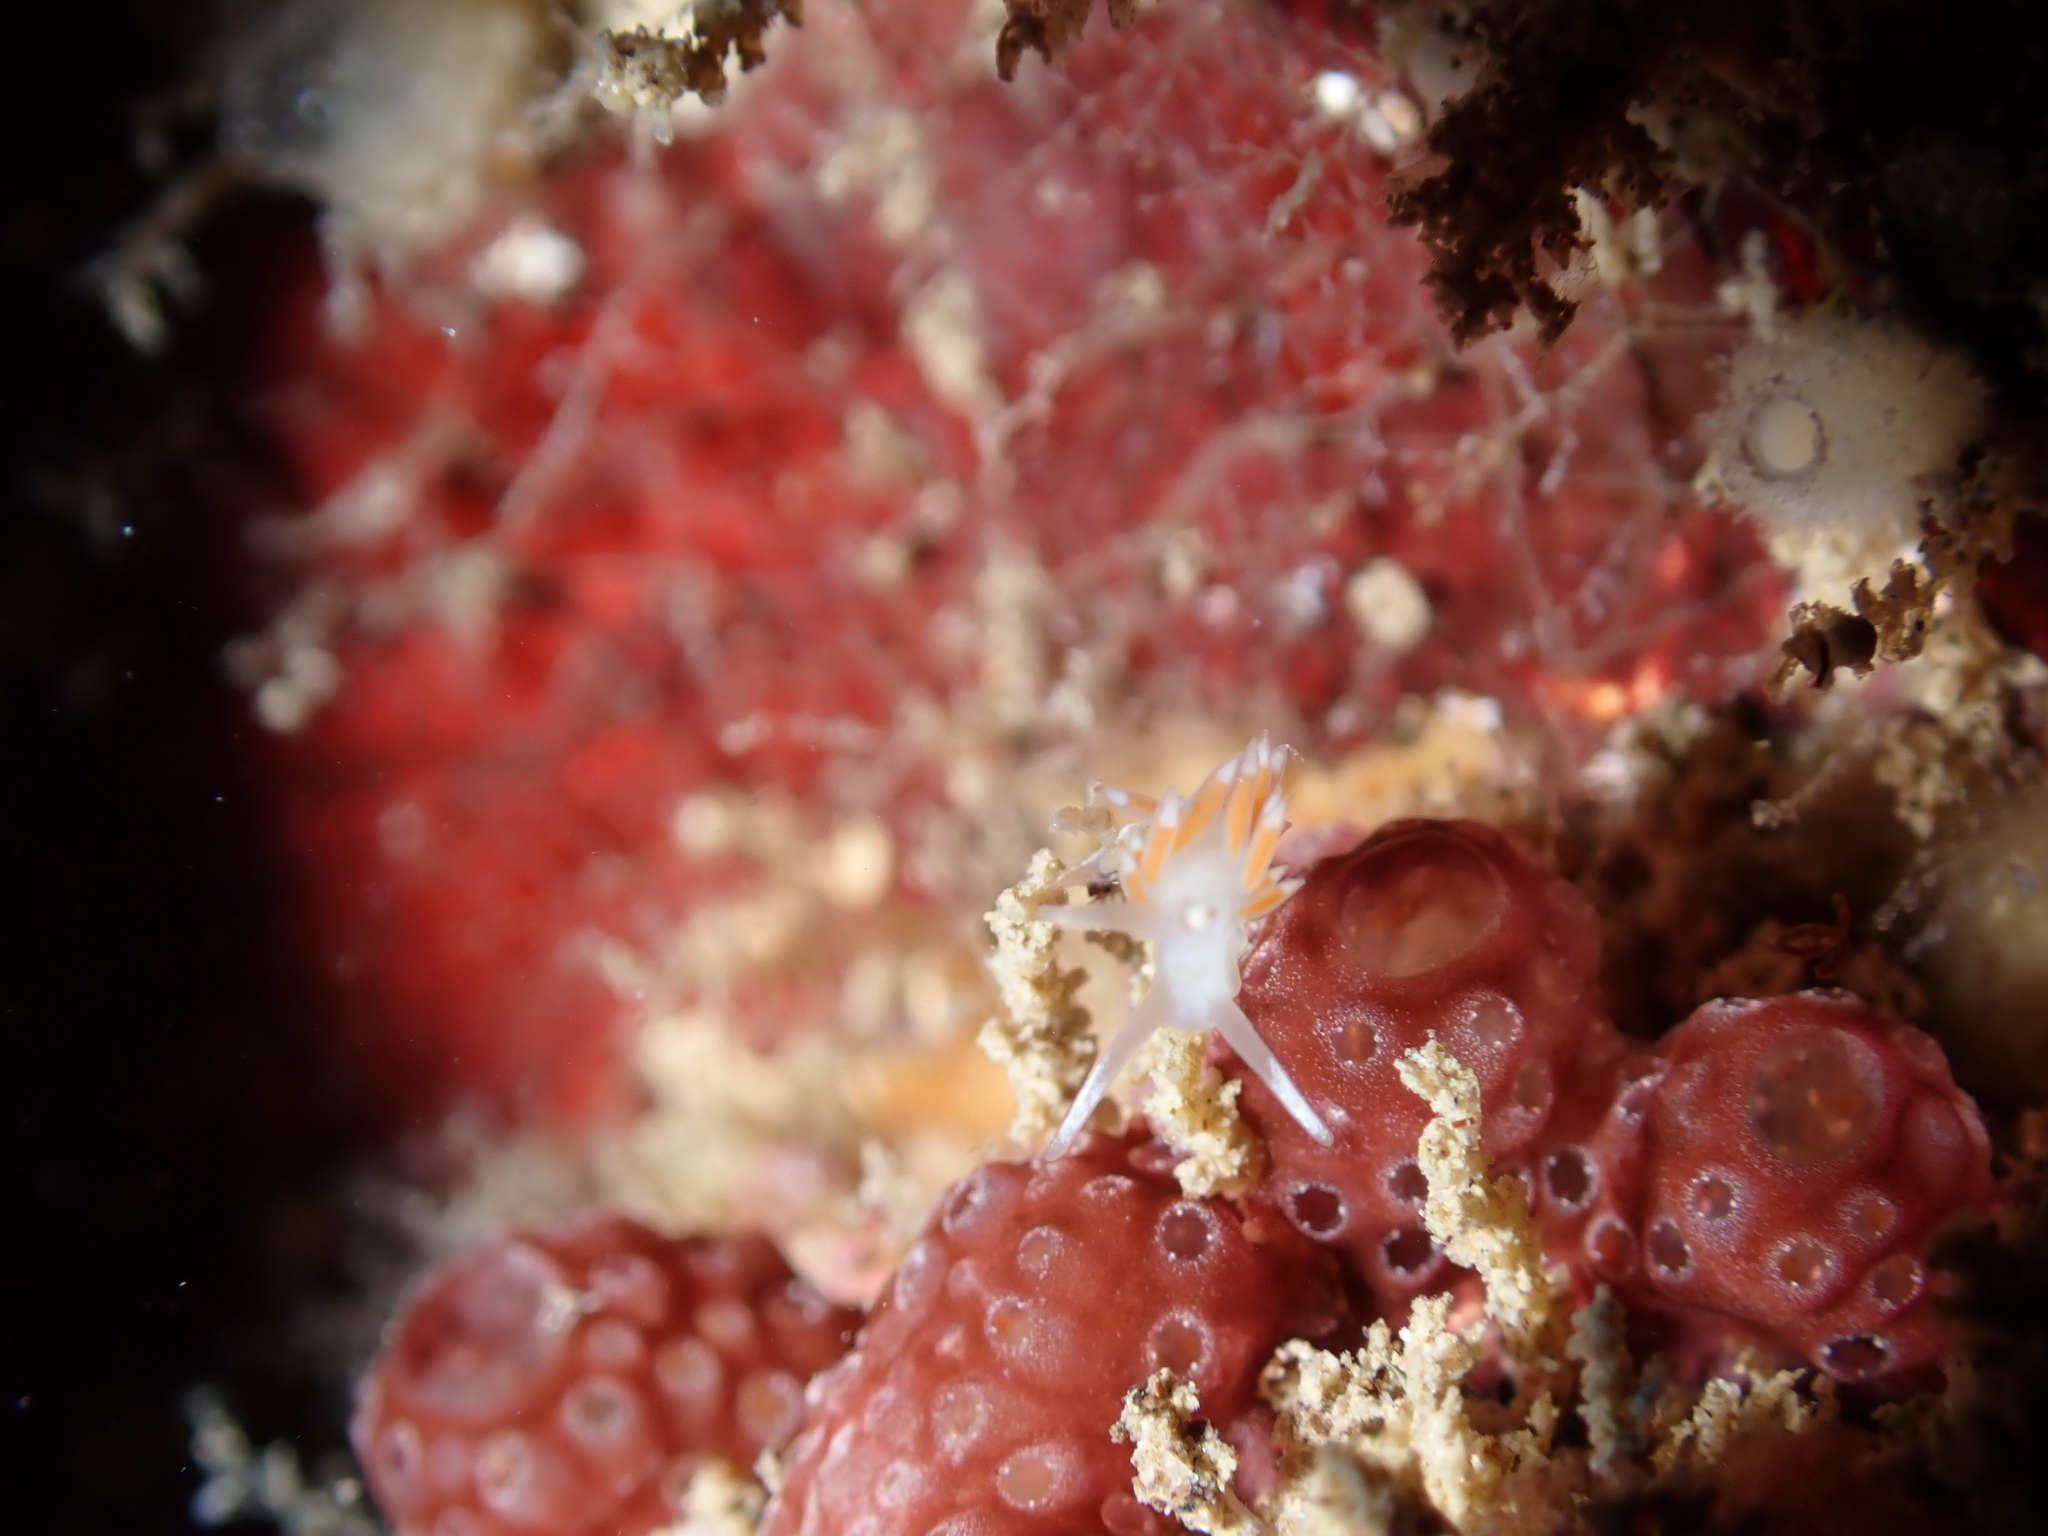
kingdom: Animalia
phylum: Mollusca
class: Gastropoda
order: Nudibranchia
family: Flabellinidae
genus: Coryphellina
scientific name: Coryphellina albomarginata
